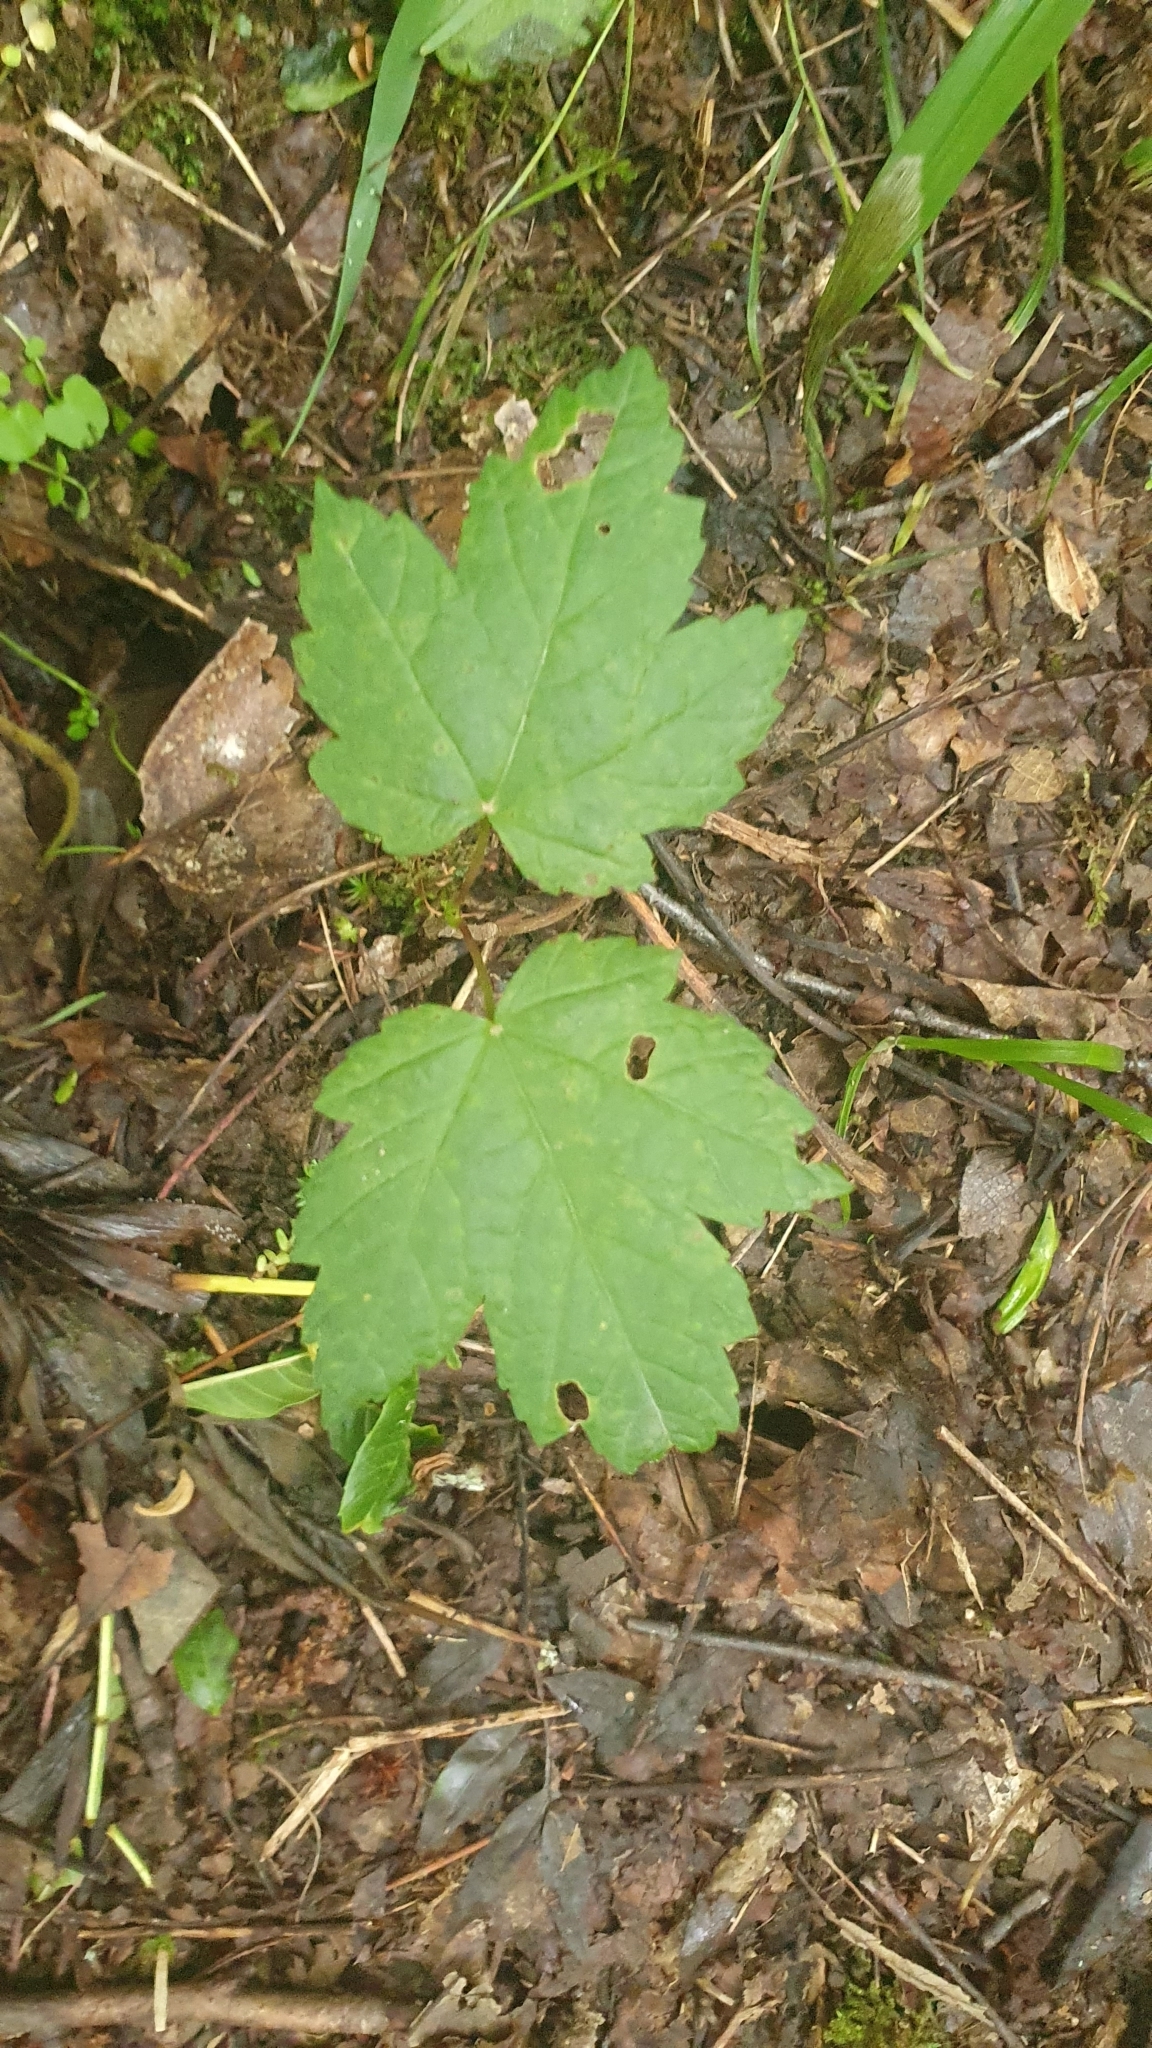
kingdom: Plantae
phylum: Tracheophyta
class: Magnoliopsida
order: Sapindales
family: Sapindaceae
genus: Acer
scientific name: Acer pseudoplatanus
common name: Sycamore
